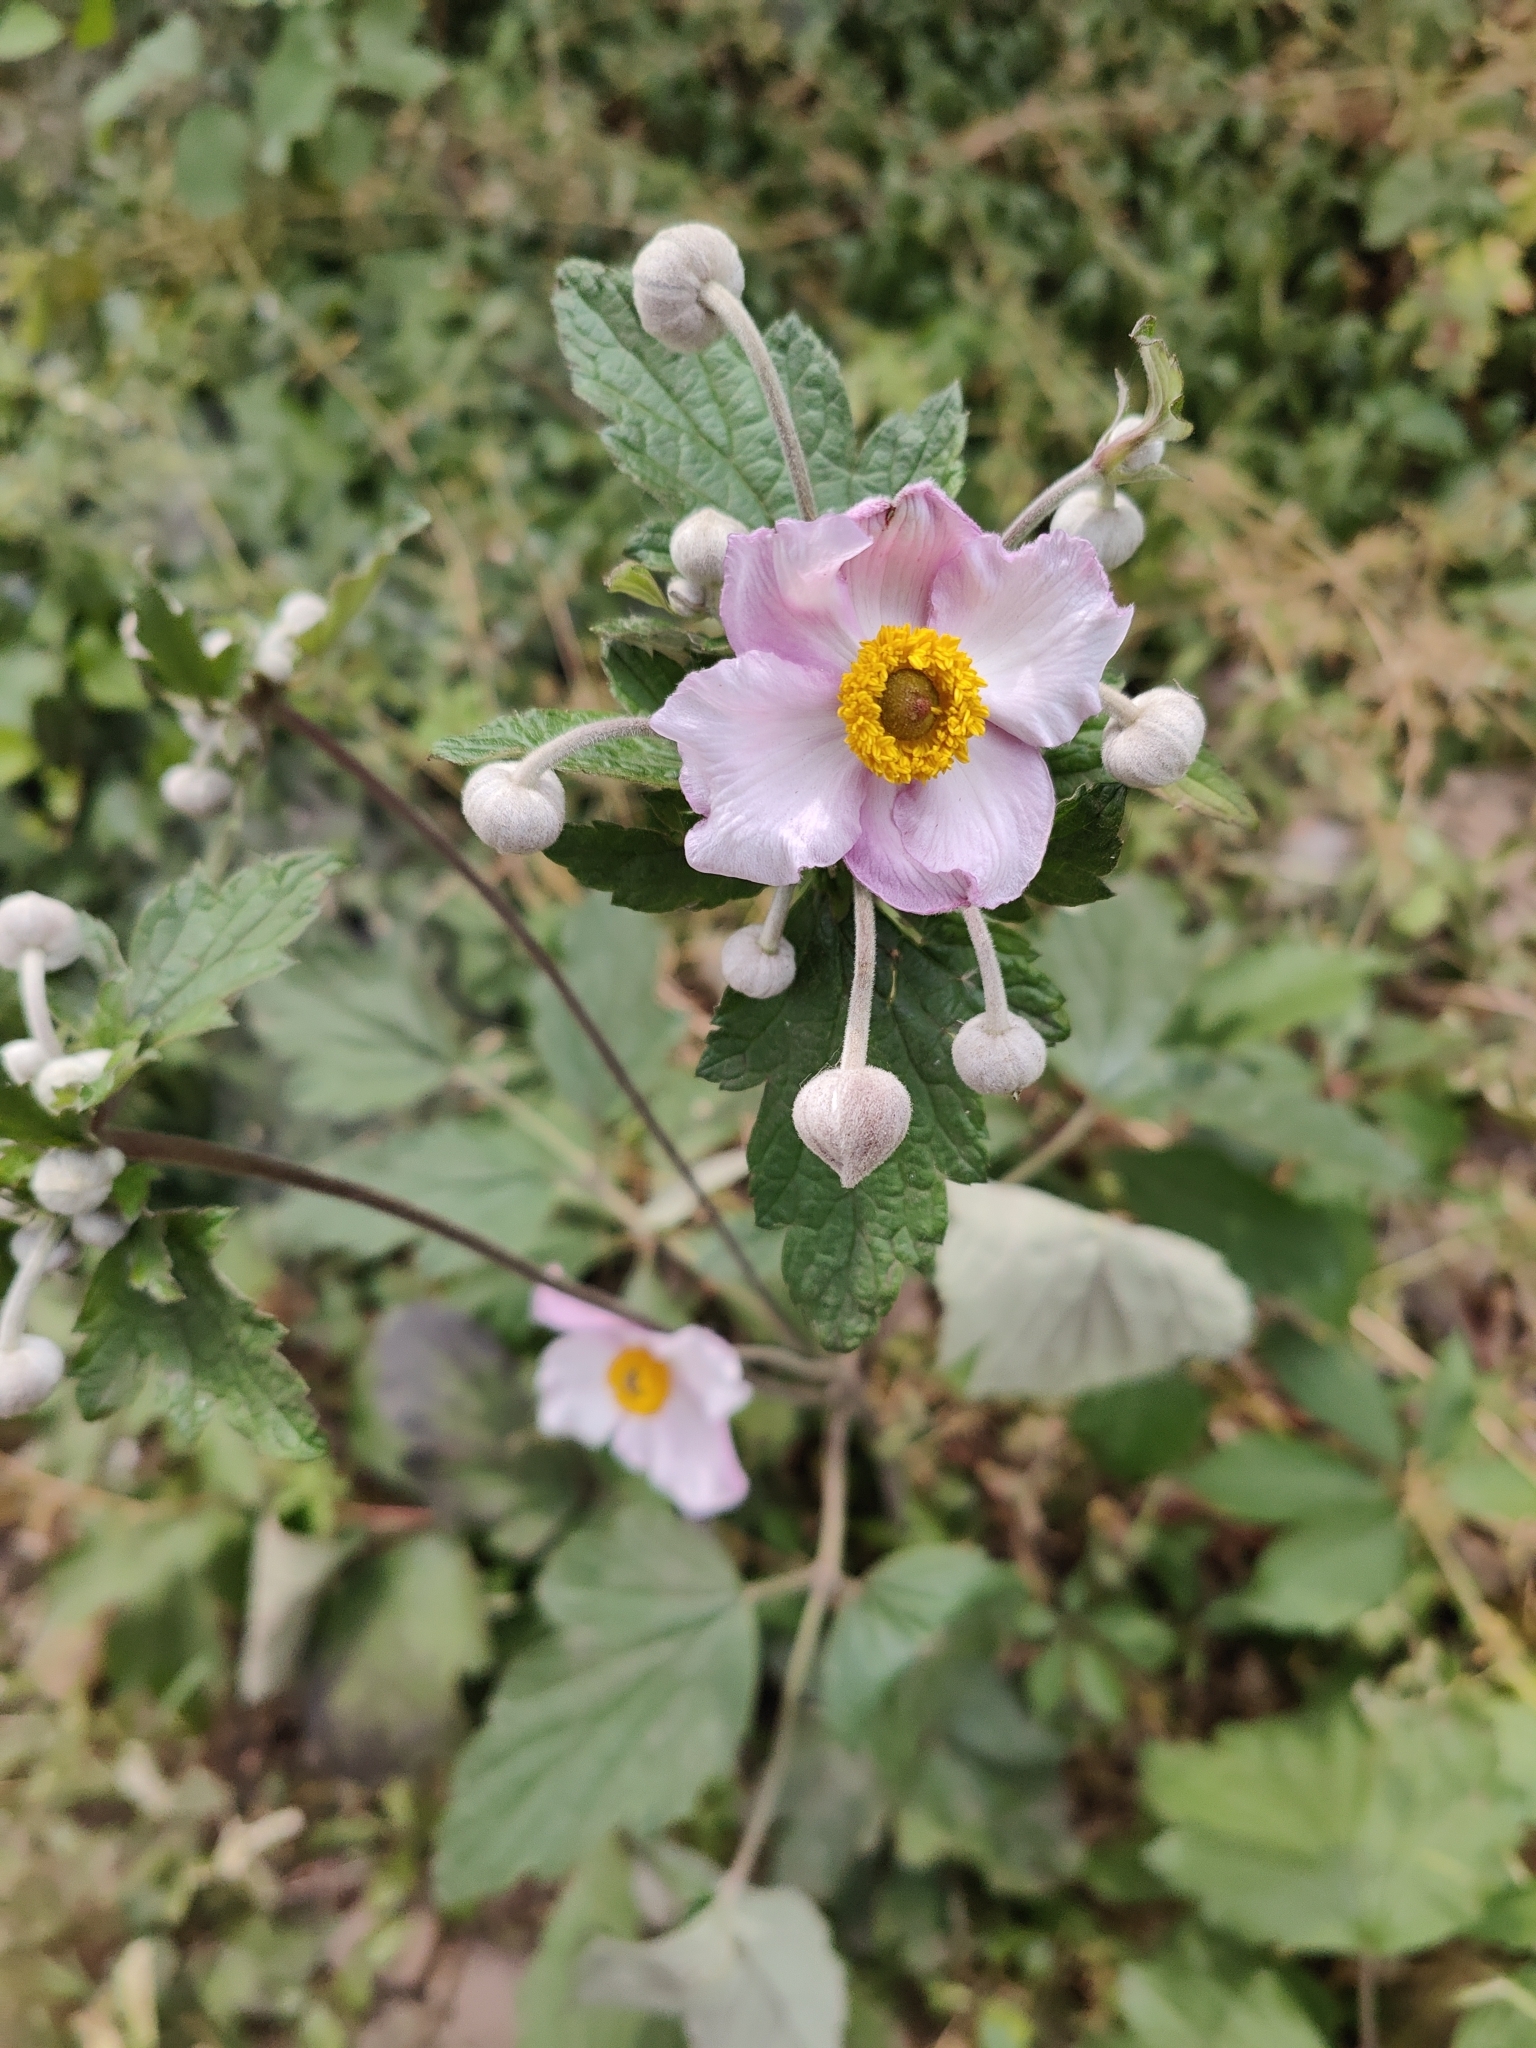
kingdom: Plantae
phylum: Tracheophyta
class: Magnoliopsida
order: Ranunculales
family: Ranunculaceae
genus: Eriocapitella
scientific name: Eriocapitella hupehensis
